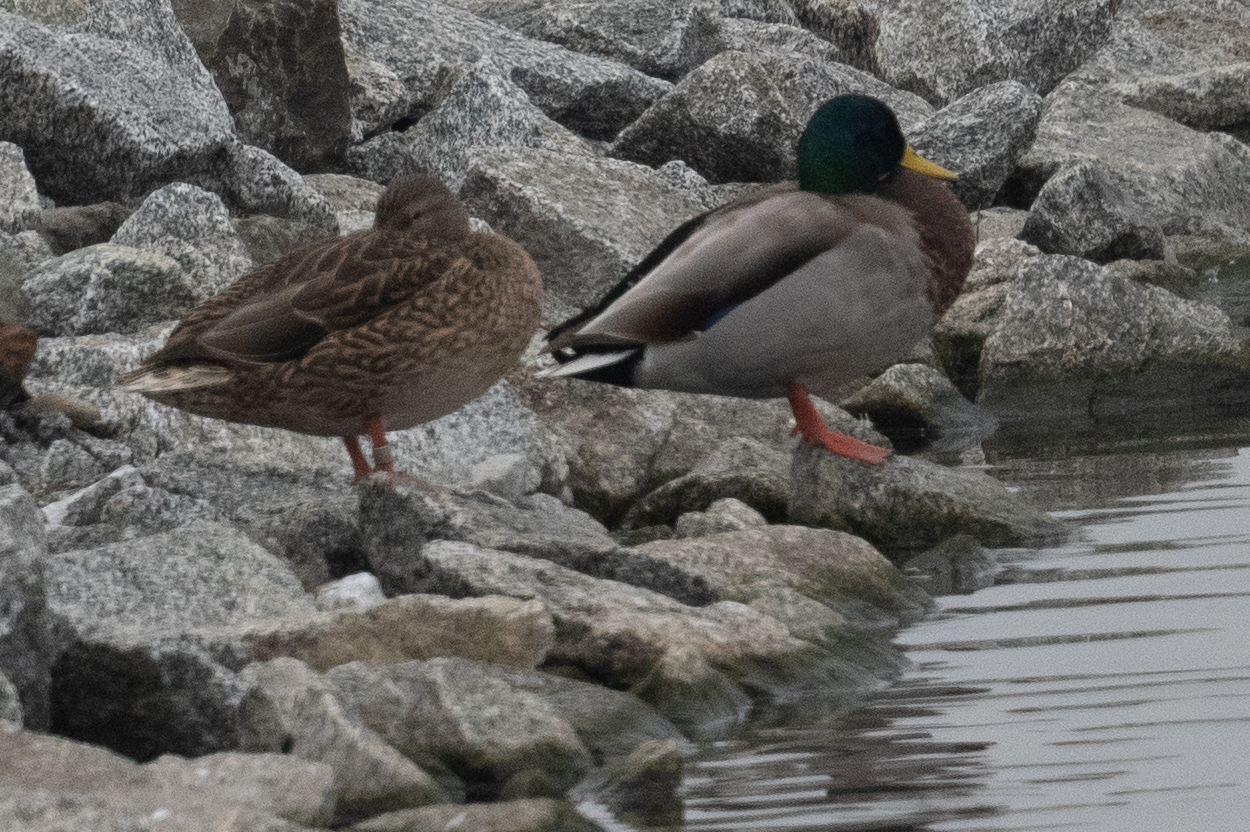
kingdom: Animalia
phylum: Chordata
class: Aves
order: Anseriformes
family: Anatidae
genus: Anas
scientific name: Anas platyrhynchos
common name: Mallard
